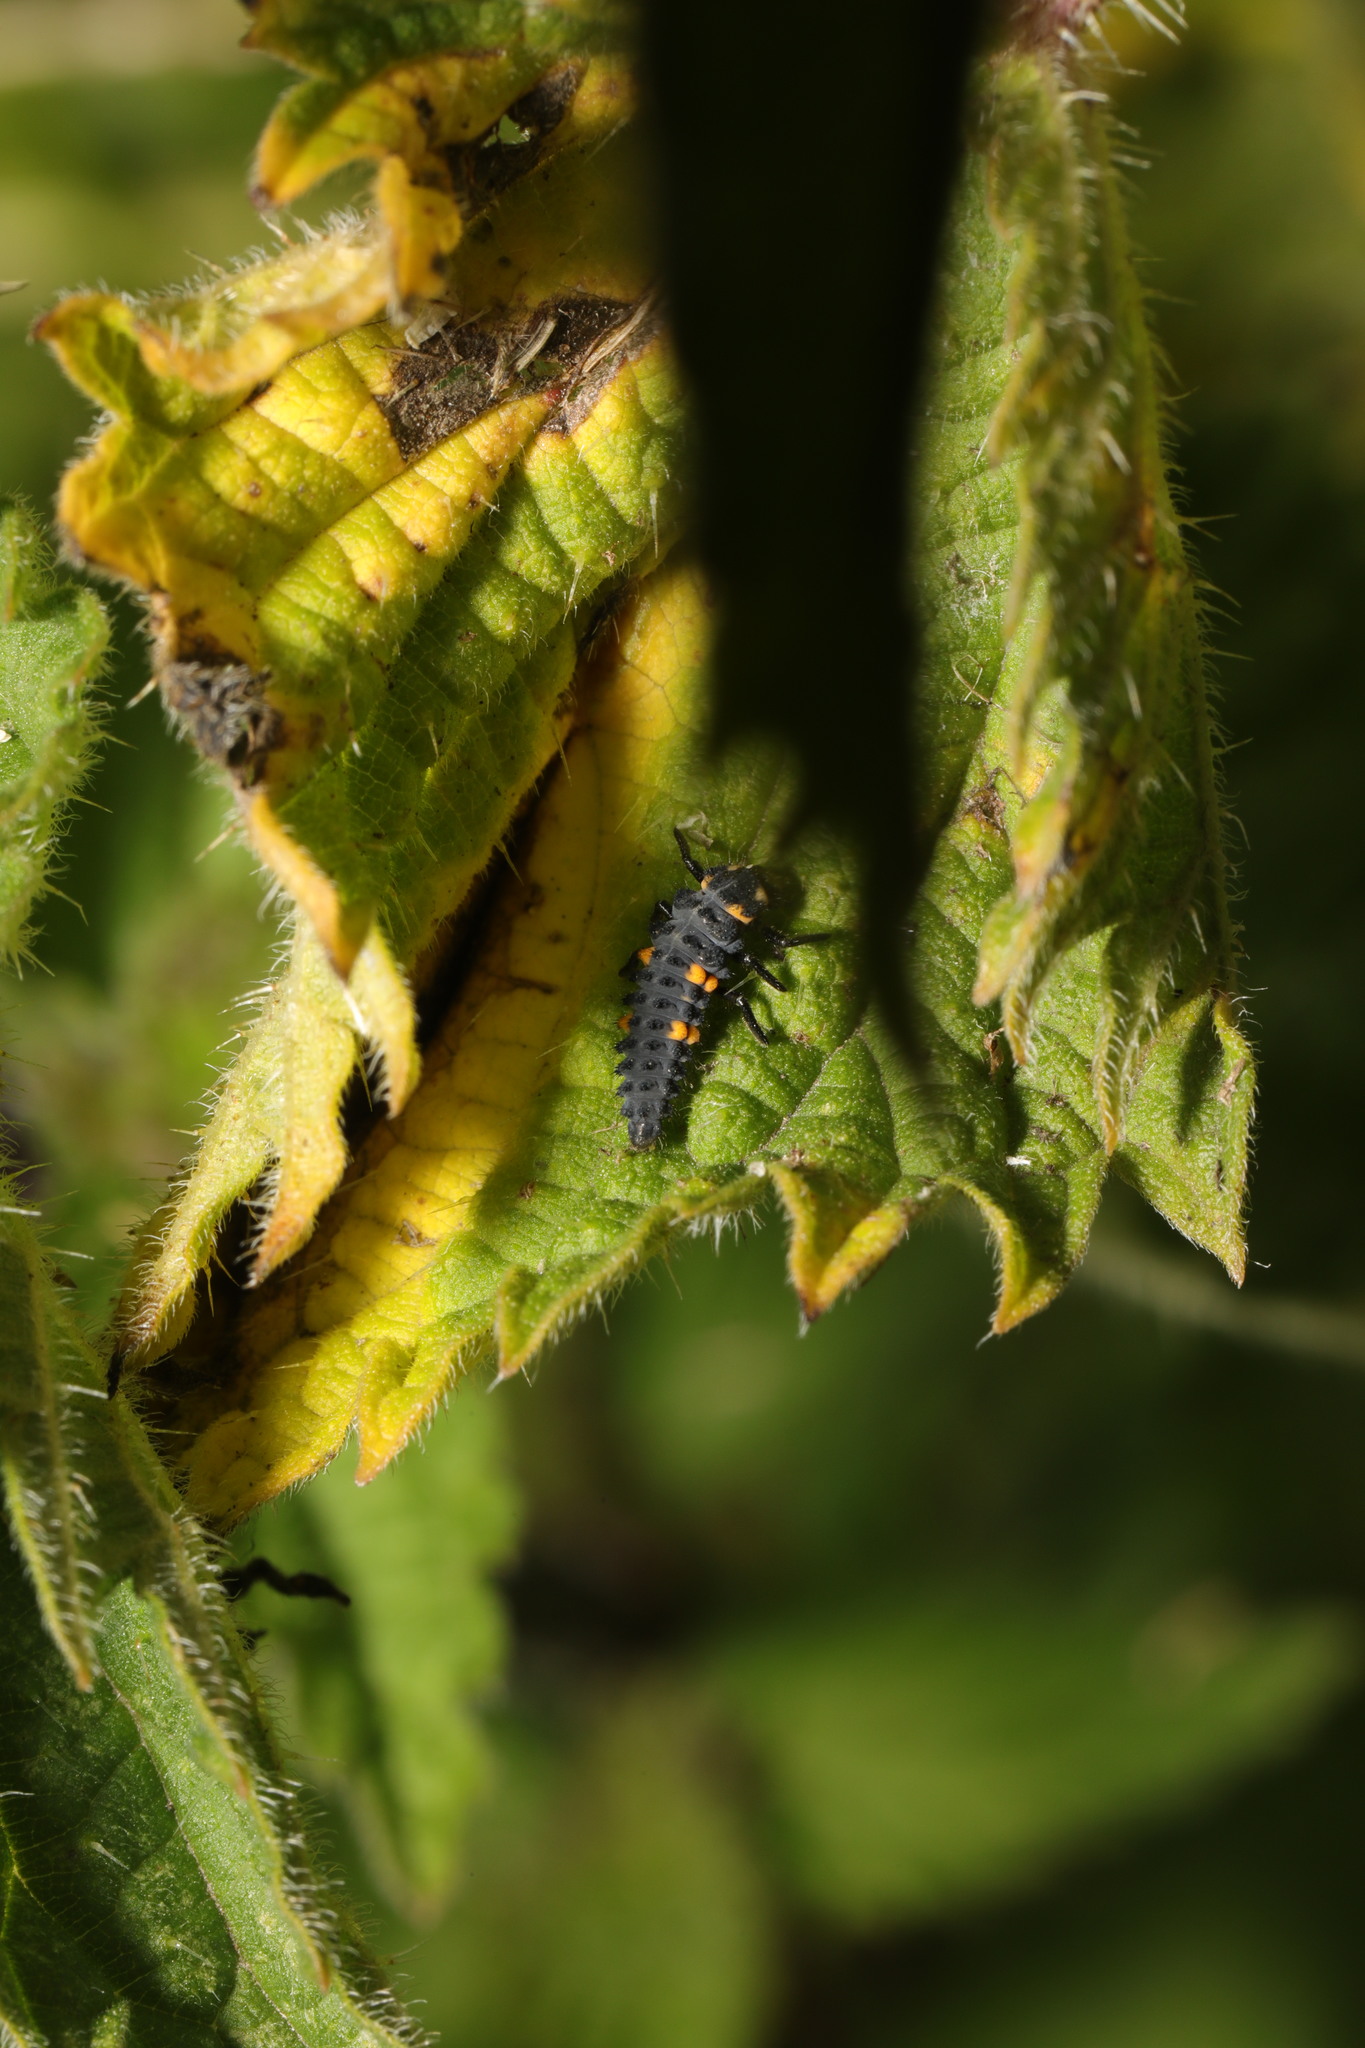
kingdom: Animalia
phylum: Arthropoda
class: Insecta
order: Coleoptera
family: Coccinellidae
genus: Coccinella
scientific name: Coccinella septempunctata
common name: Sevenspotted lady beetle
